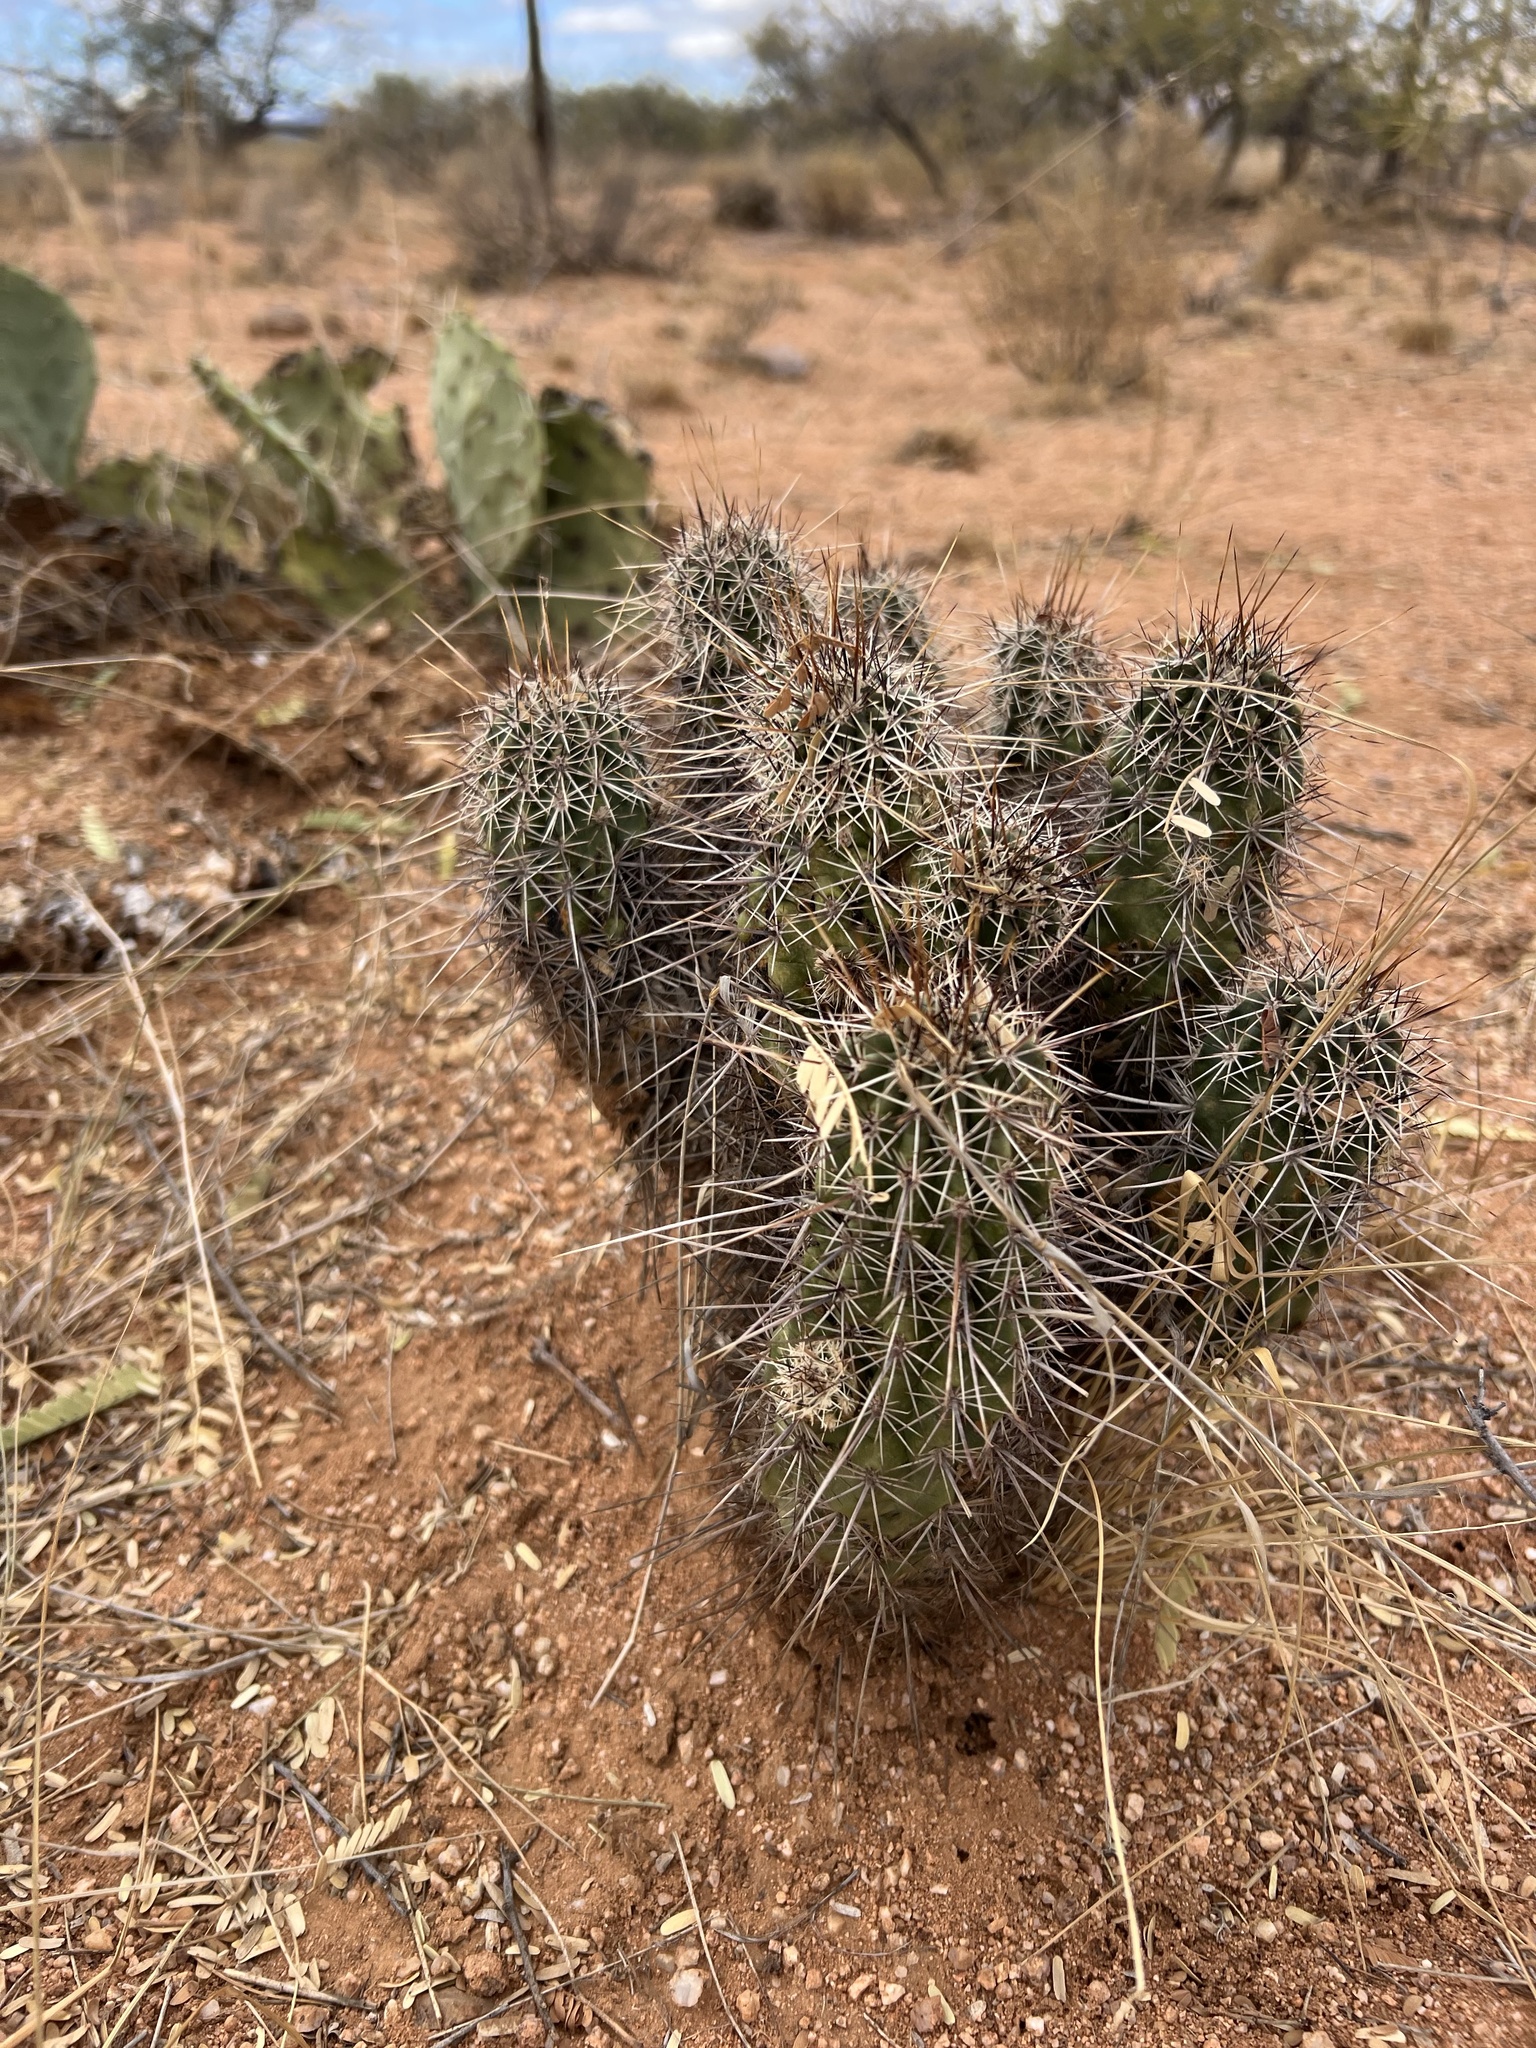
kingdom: Plantae
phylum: Tracheophyta
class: Magnoliopsida
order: Caryophyllales
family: Cactaceae
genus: Echinocereus
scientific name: Echinocereus fasciculatus
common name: Bundle hedgehog
